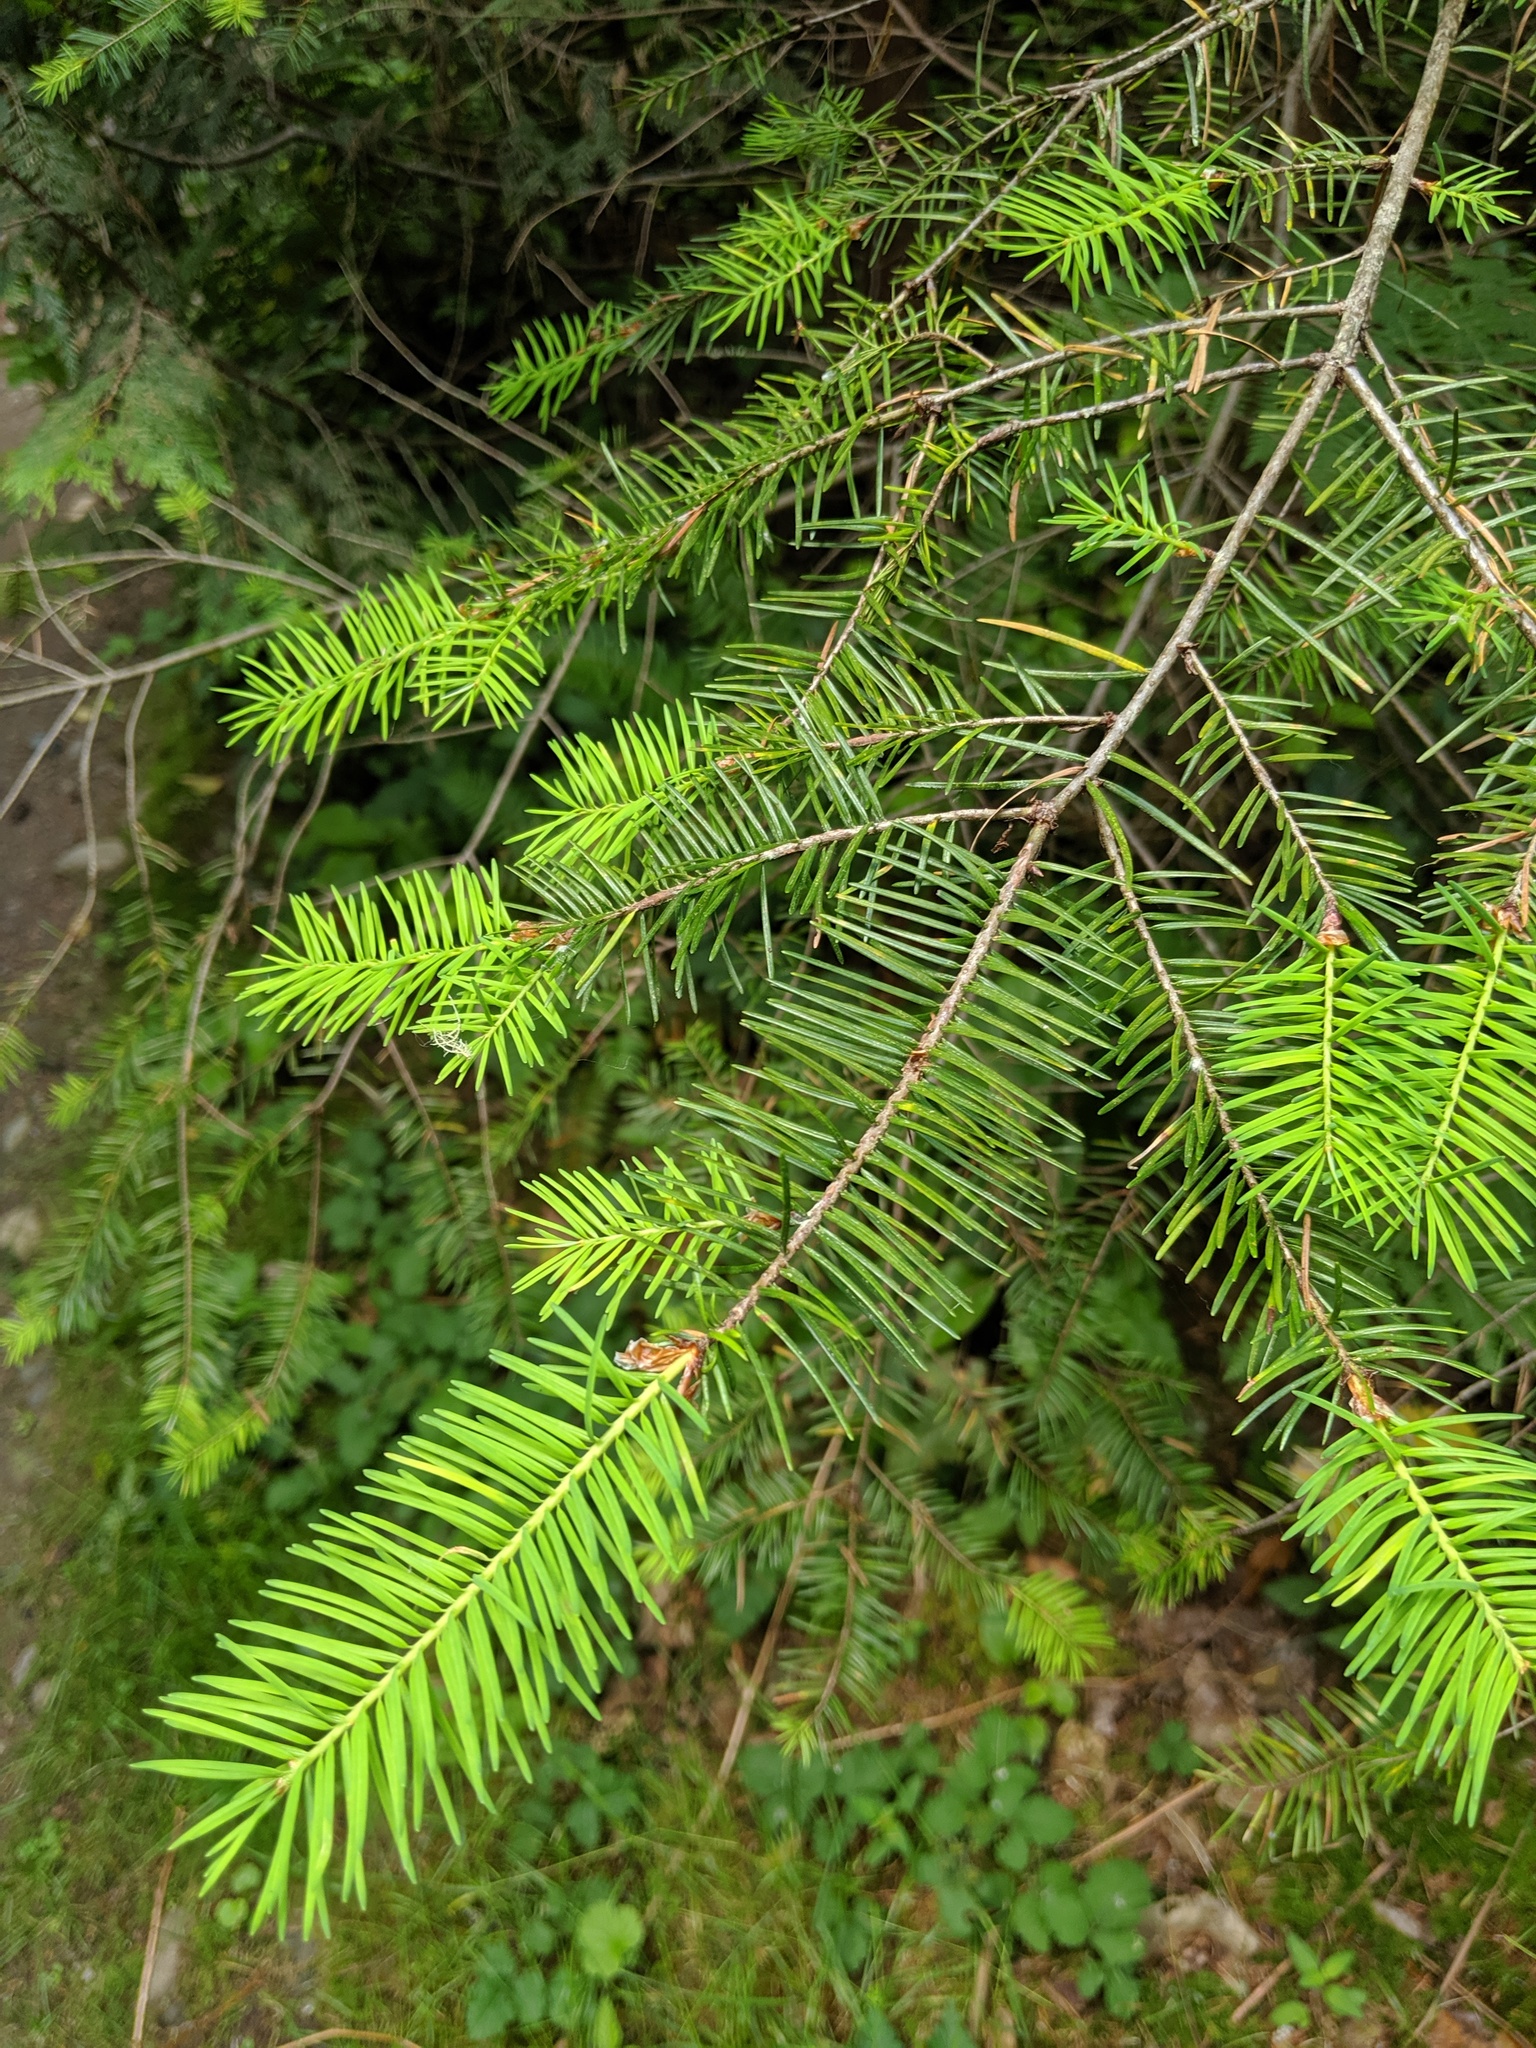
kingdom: Plantae
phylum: Tracheophyta
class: Pinopsida
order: Pinales
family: Pinaceae
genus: Pseudotsuga
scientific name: Pseudotsuga menziesii
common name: Douglas fir
